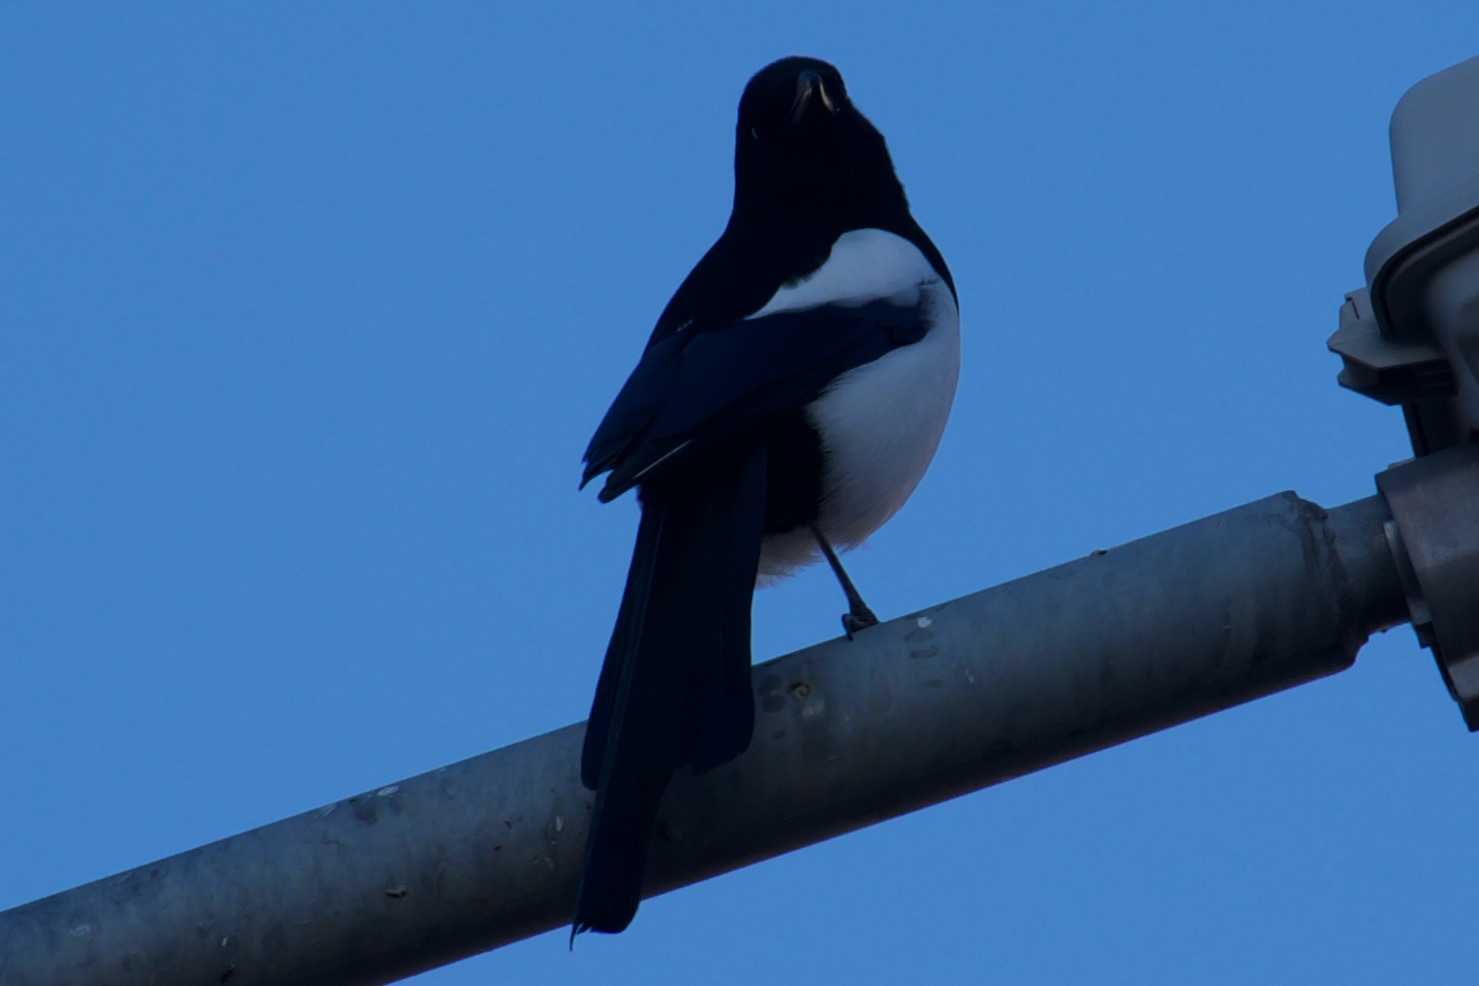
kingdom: Animalia
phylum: Chordata
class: Aves
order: Passeriformes
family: Corvidae
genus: Pica
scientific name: Pica pica
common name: Eurasian magpie
